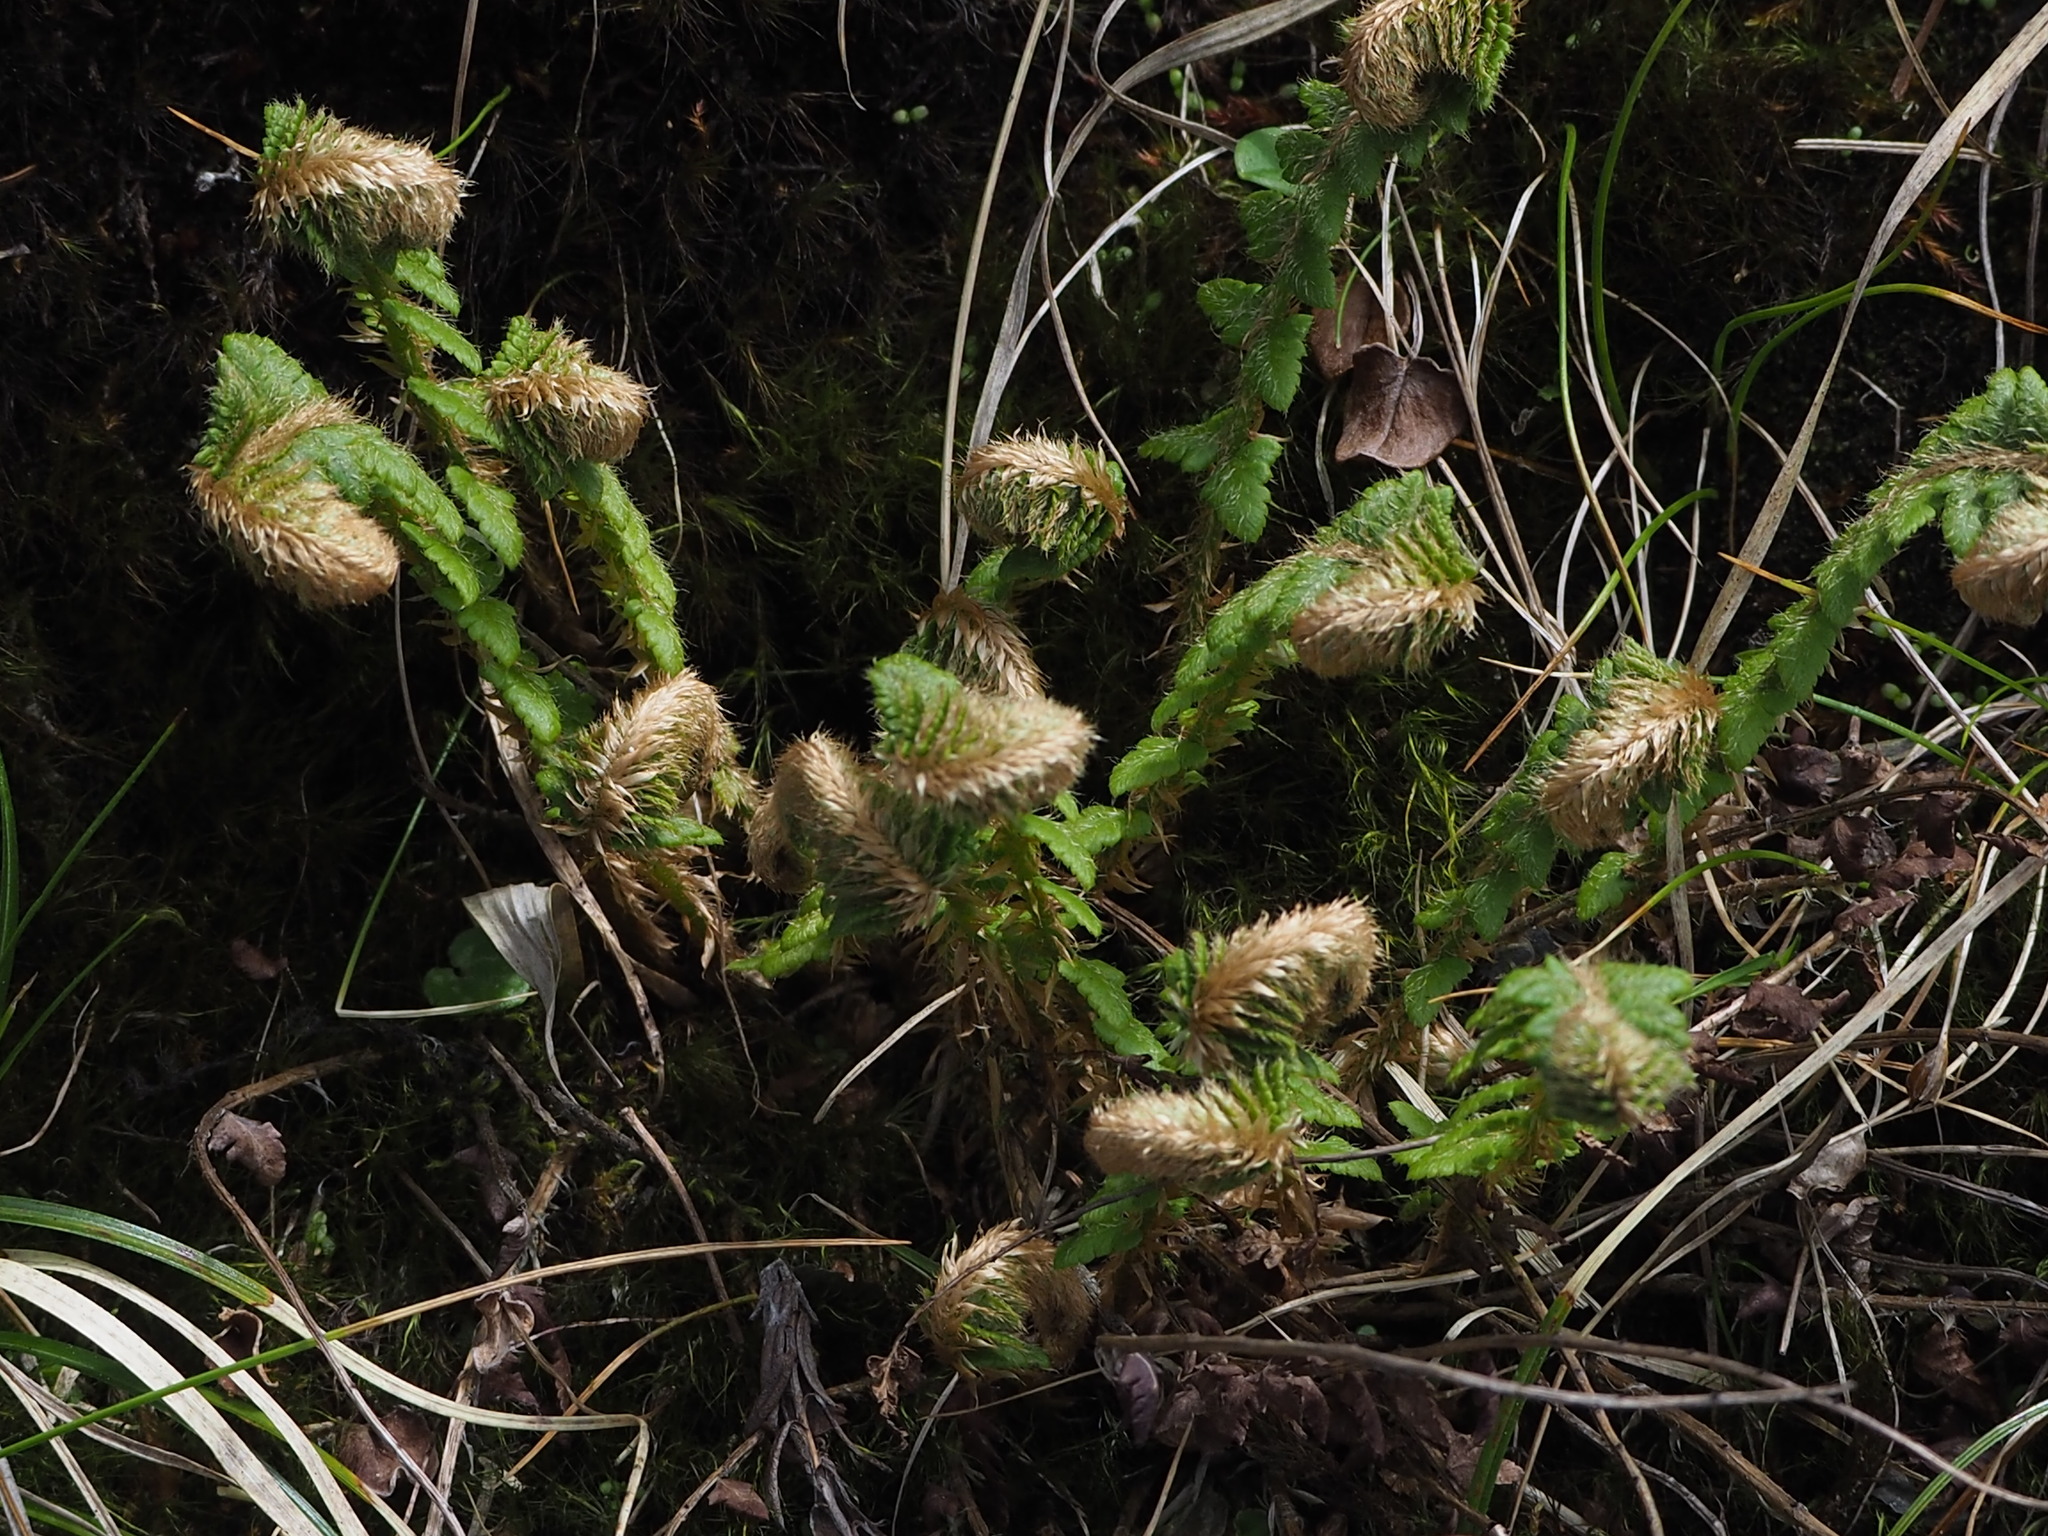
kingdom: Plantae
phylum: Tracheophyta
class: Polypodiopsida
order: Polypodiales
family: Dryopteridaceae
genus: Polystichum
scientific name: Polystichum sinense
